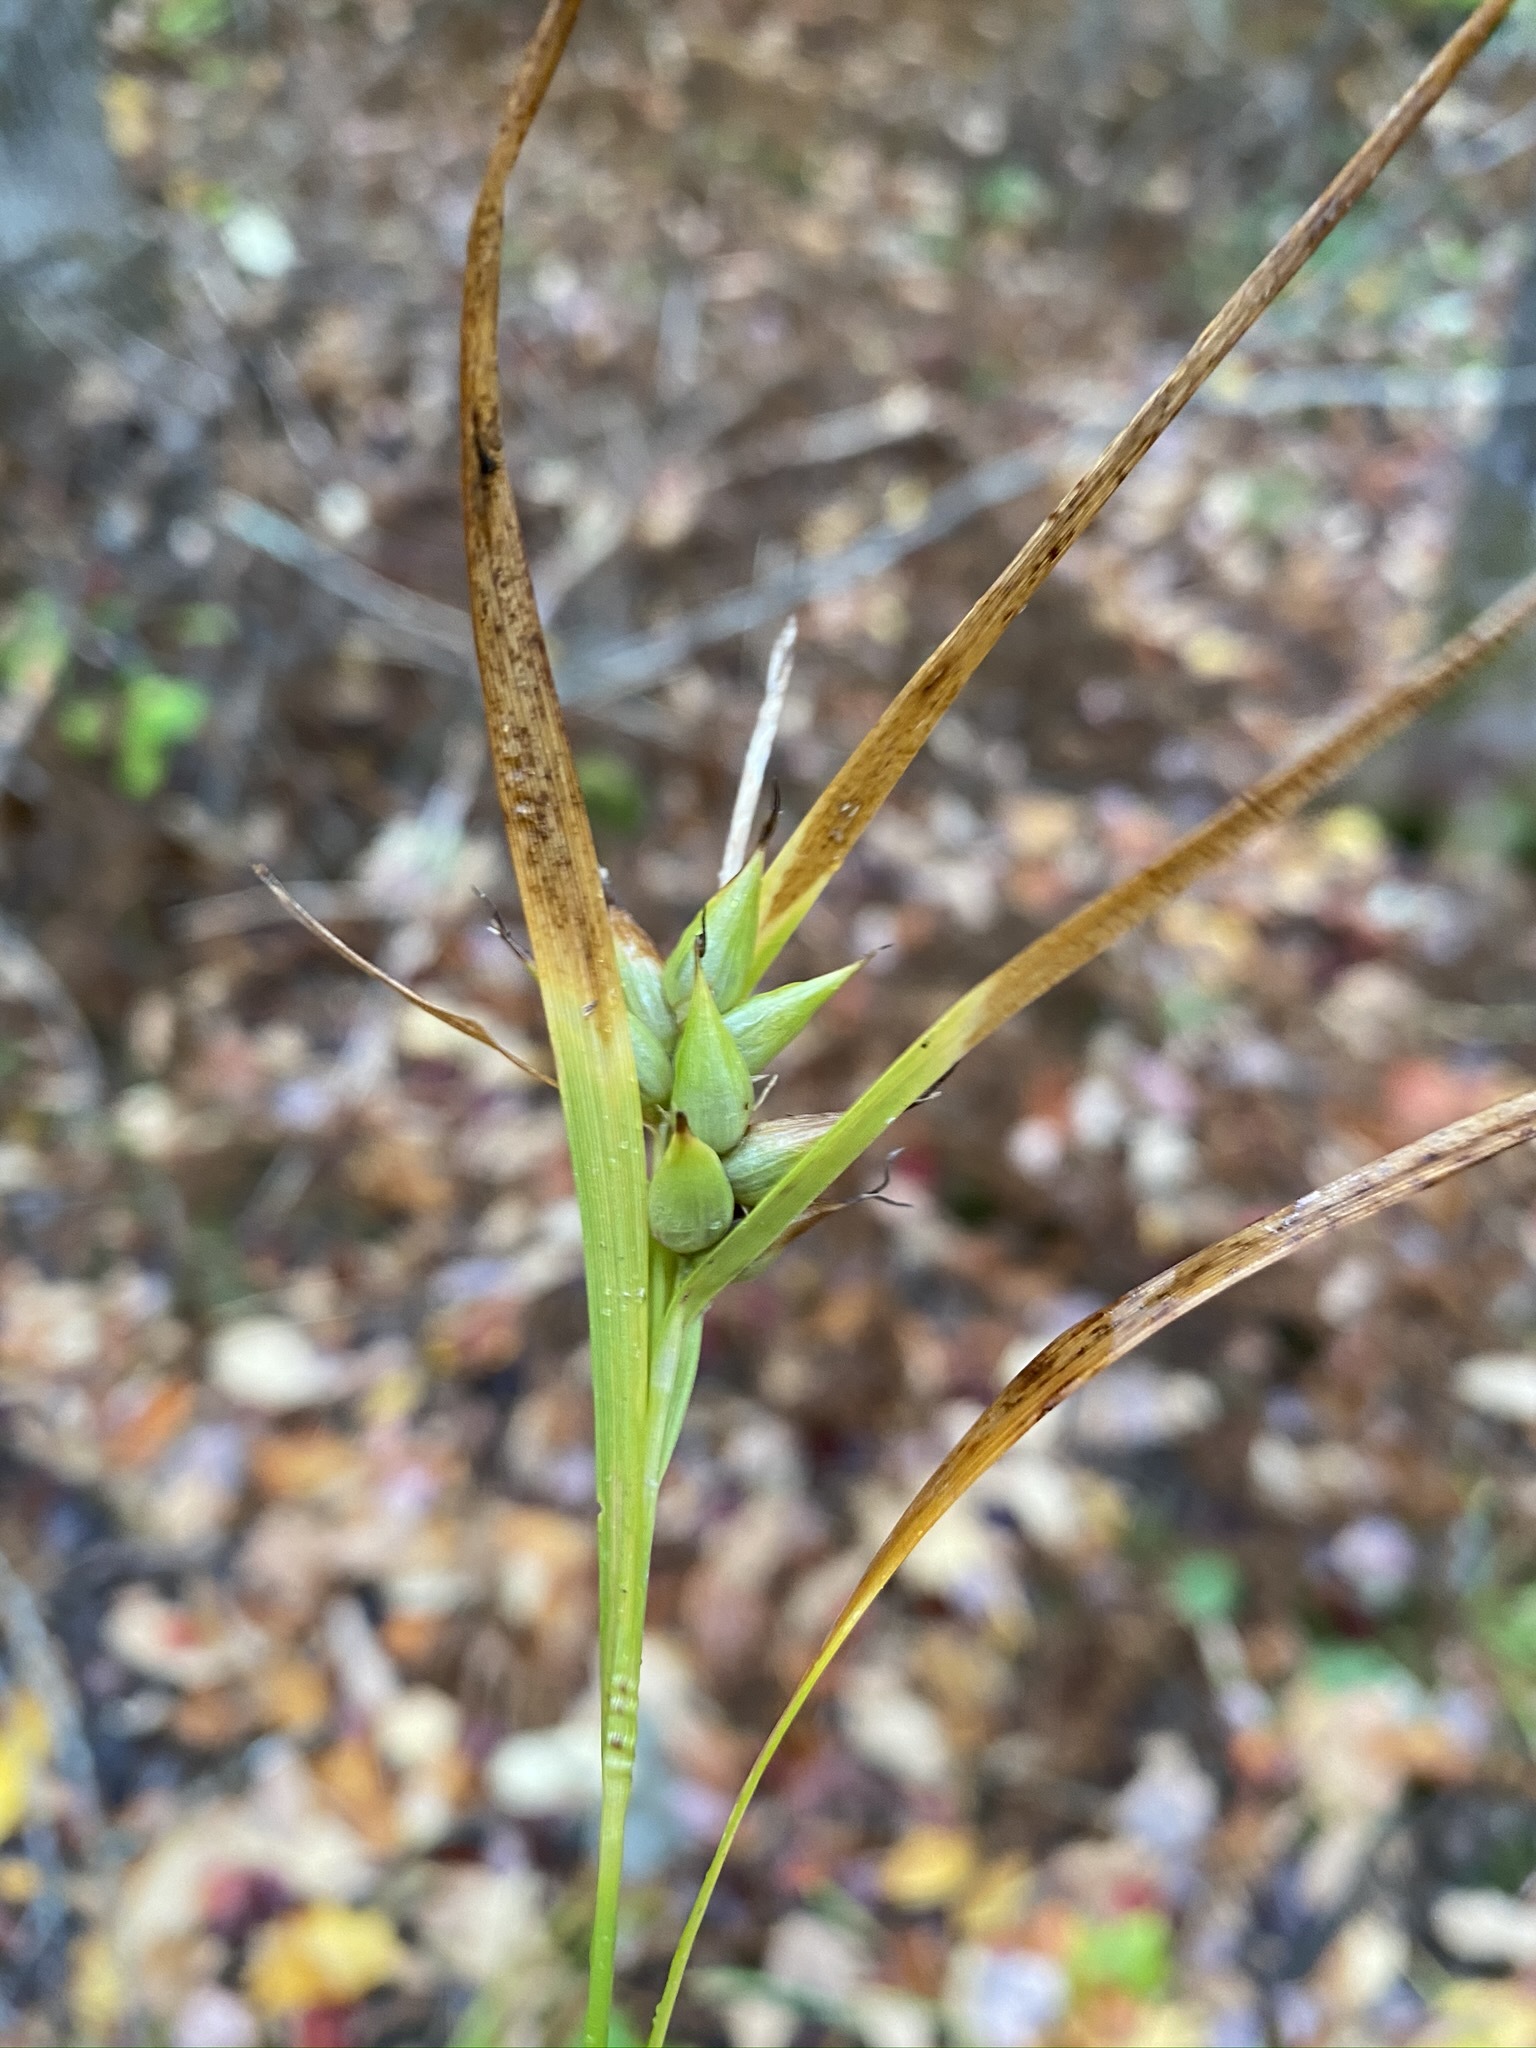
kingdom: Plantae
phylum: Tracheophyta
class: Liliopsida
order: Poales
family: Cyperaceae
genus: Carex
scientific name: Carex intumescens
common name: Greater bladder sedge
